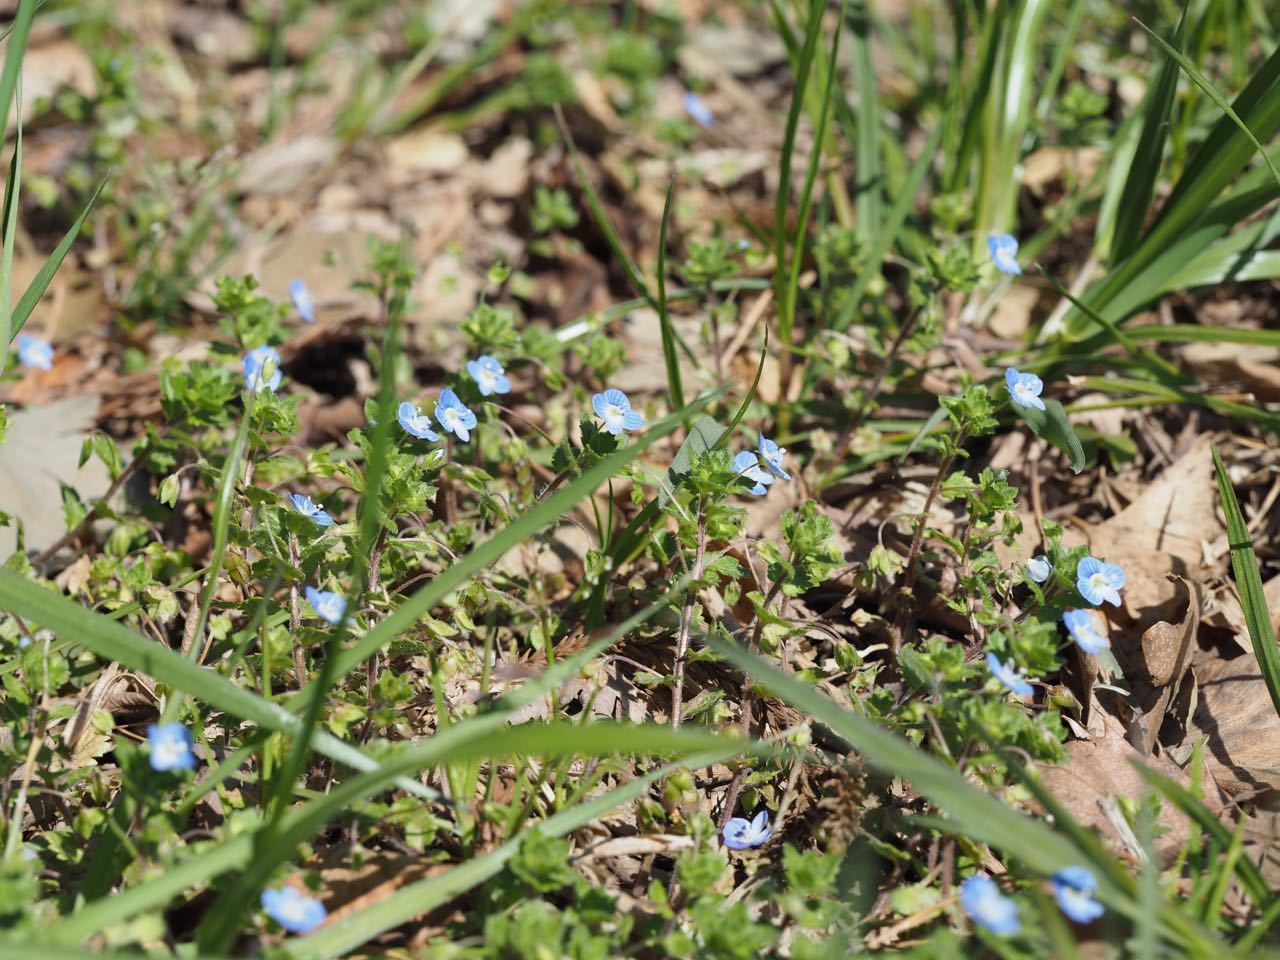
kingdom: Plantae
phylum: Tracheophyta
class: Magnoliopsida
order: Lamiales
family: Plantaginaceae
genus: Veronica
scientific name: Veronica persica
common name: Common field-speedwell
